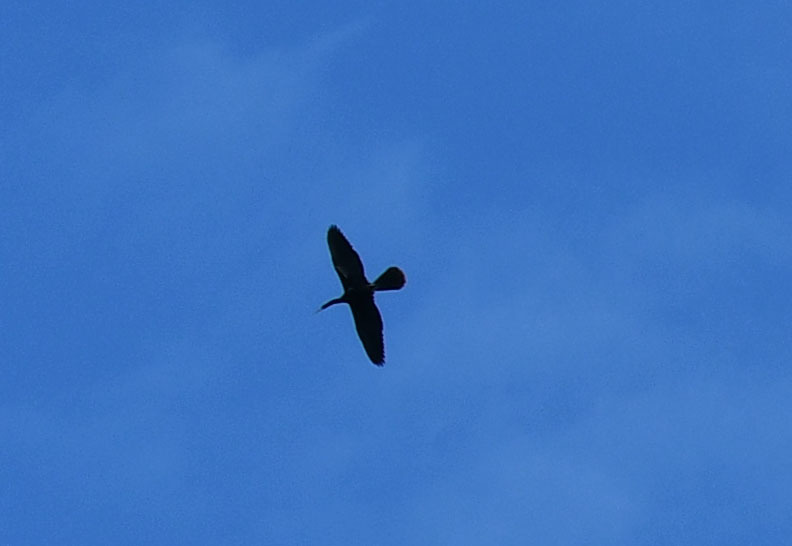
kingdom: Animalia
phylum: Chordata
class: Aves
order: Suliformes
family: Anhingidae
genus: Anhinga
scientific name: Anhinga anhinga
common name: Anhinga
